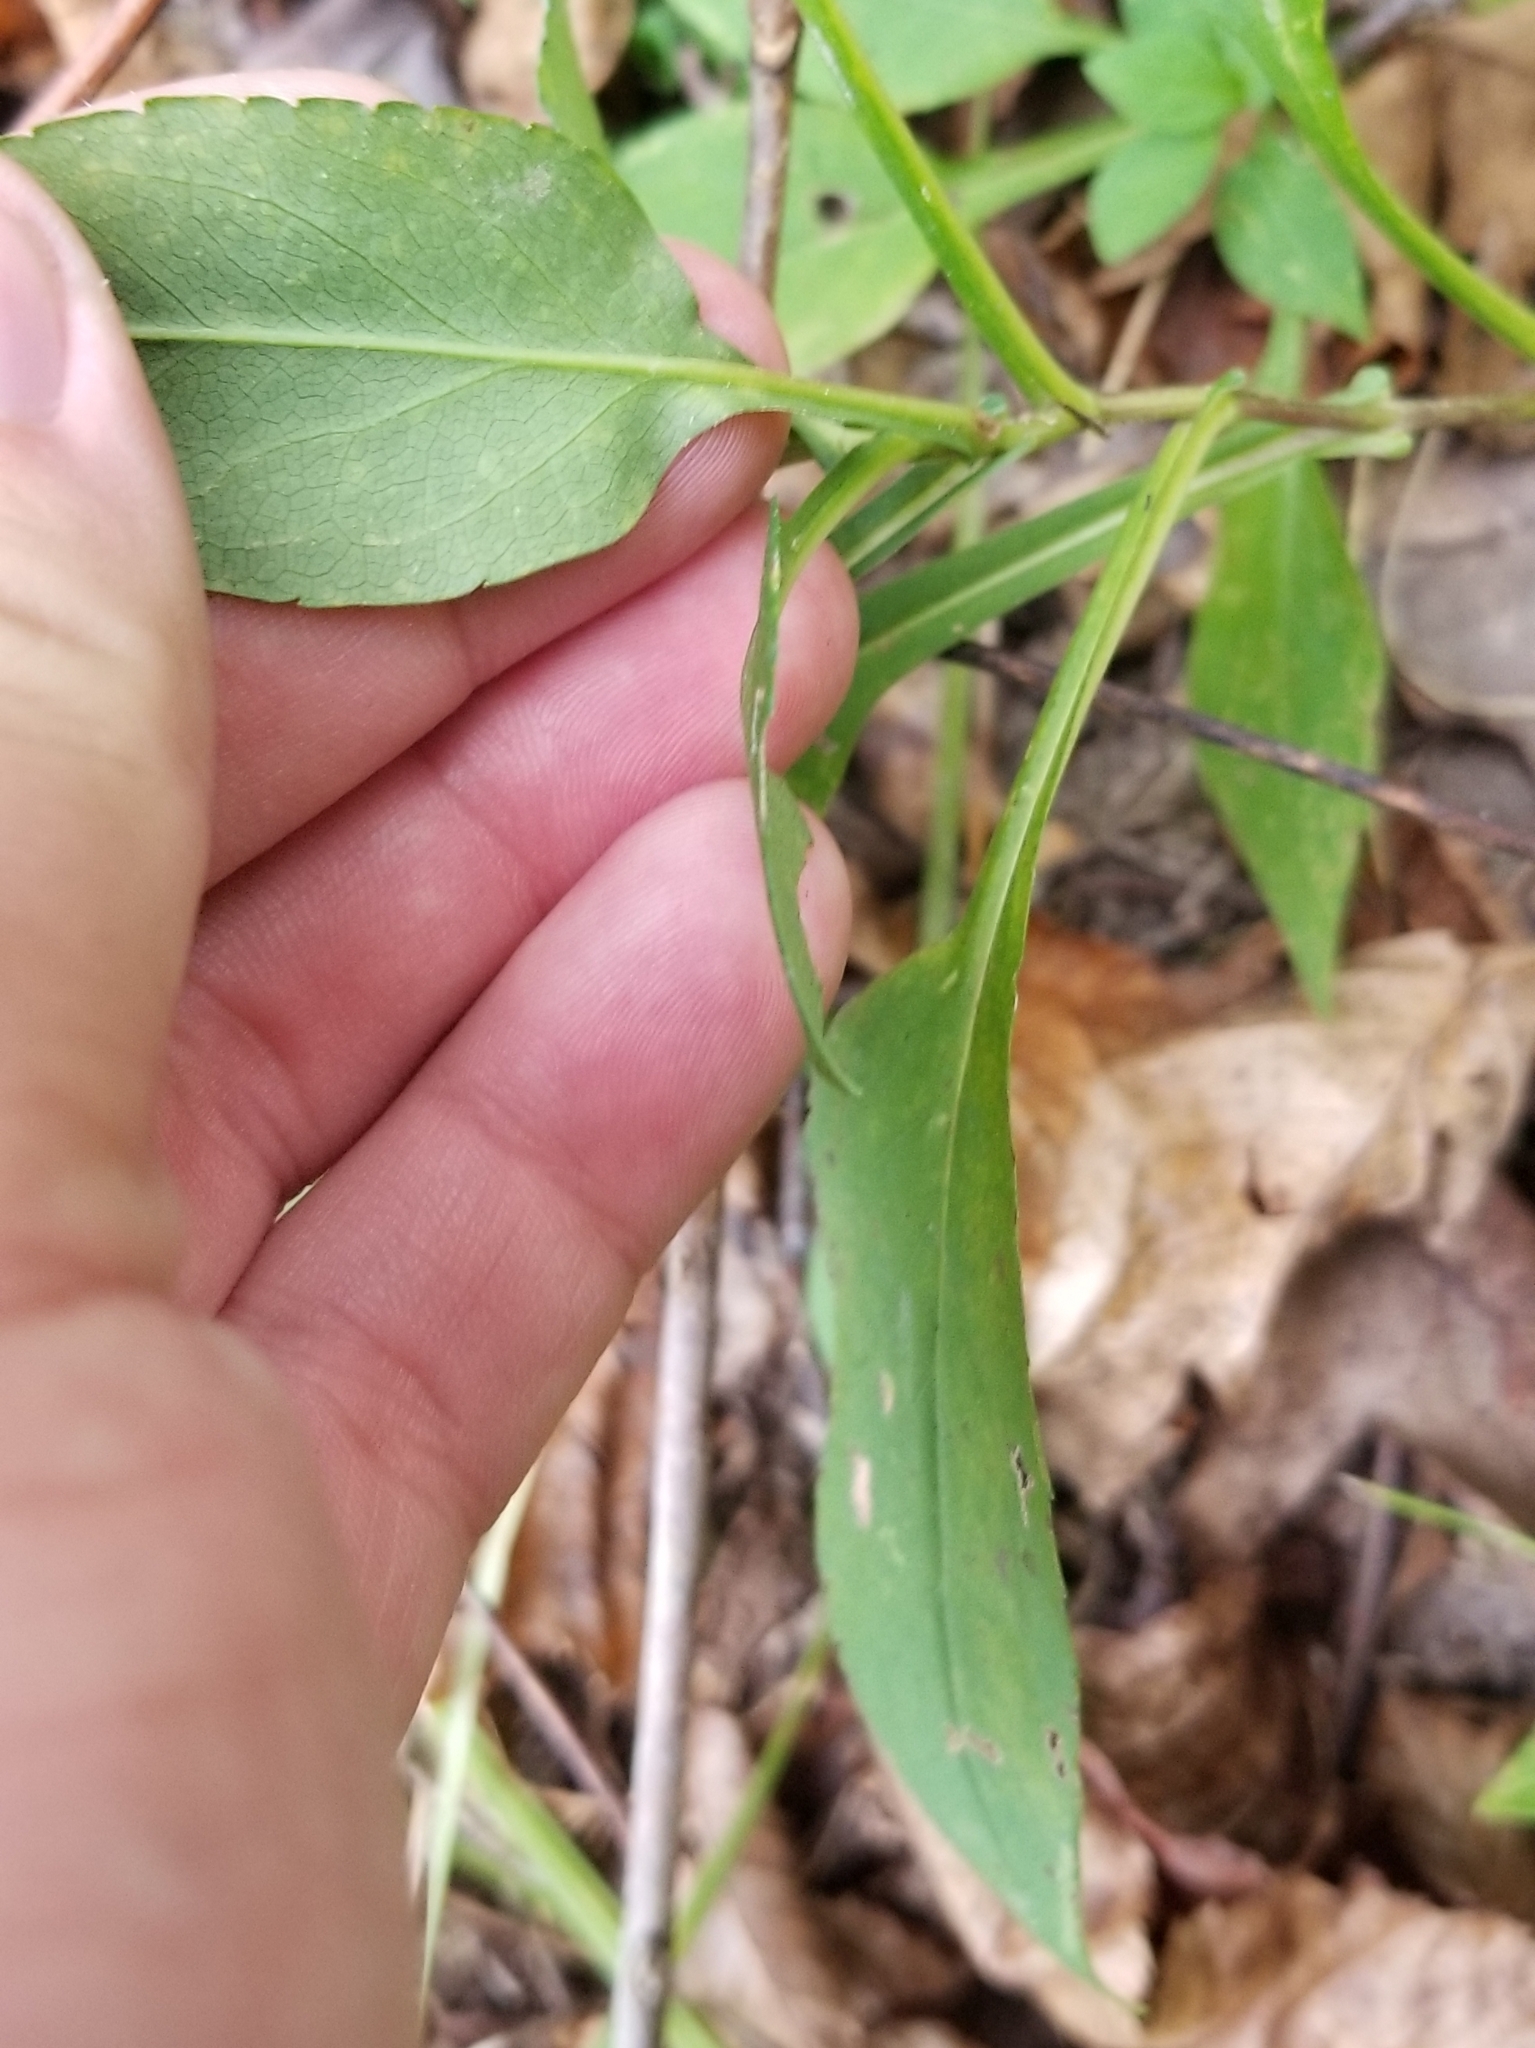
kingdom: Plantae
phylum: Tracheophyta
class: Magnoliopsida
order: Asterales
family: Asteraceae
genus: Symphyotrichum
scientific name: Symphyotrichum prenanthoides
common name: Crooked-stem aster
